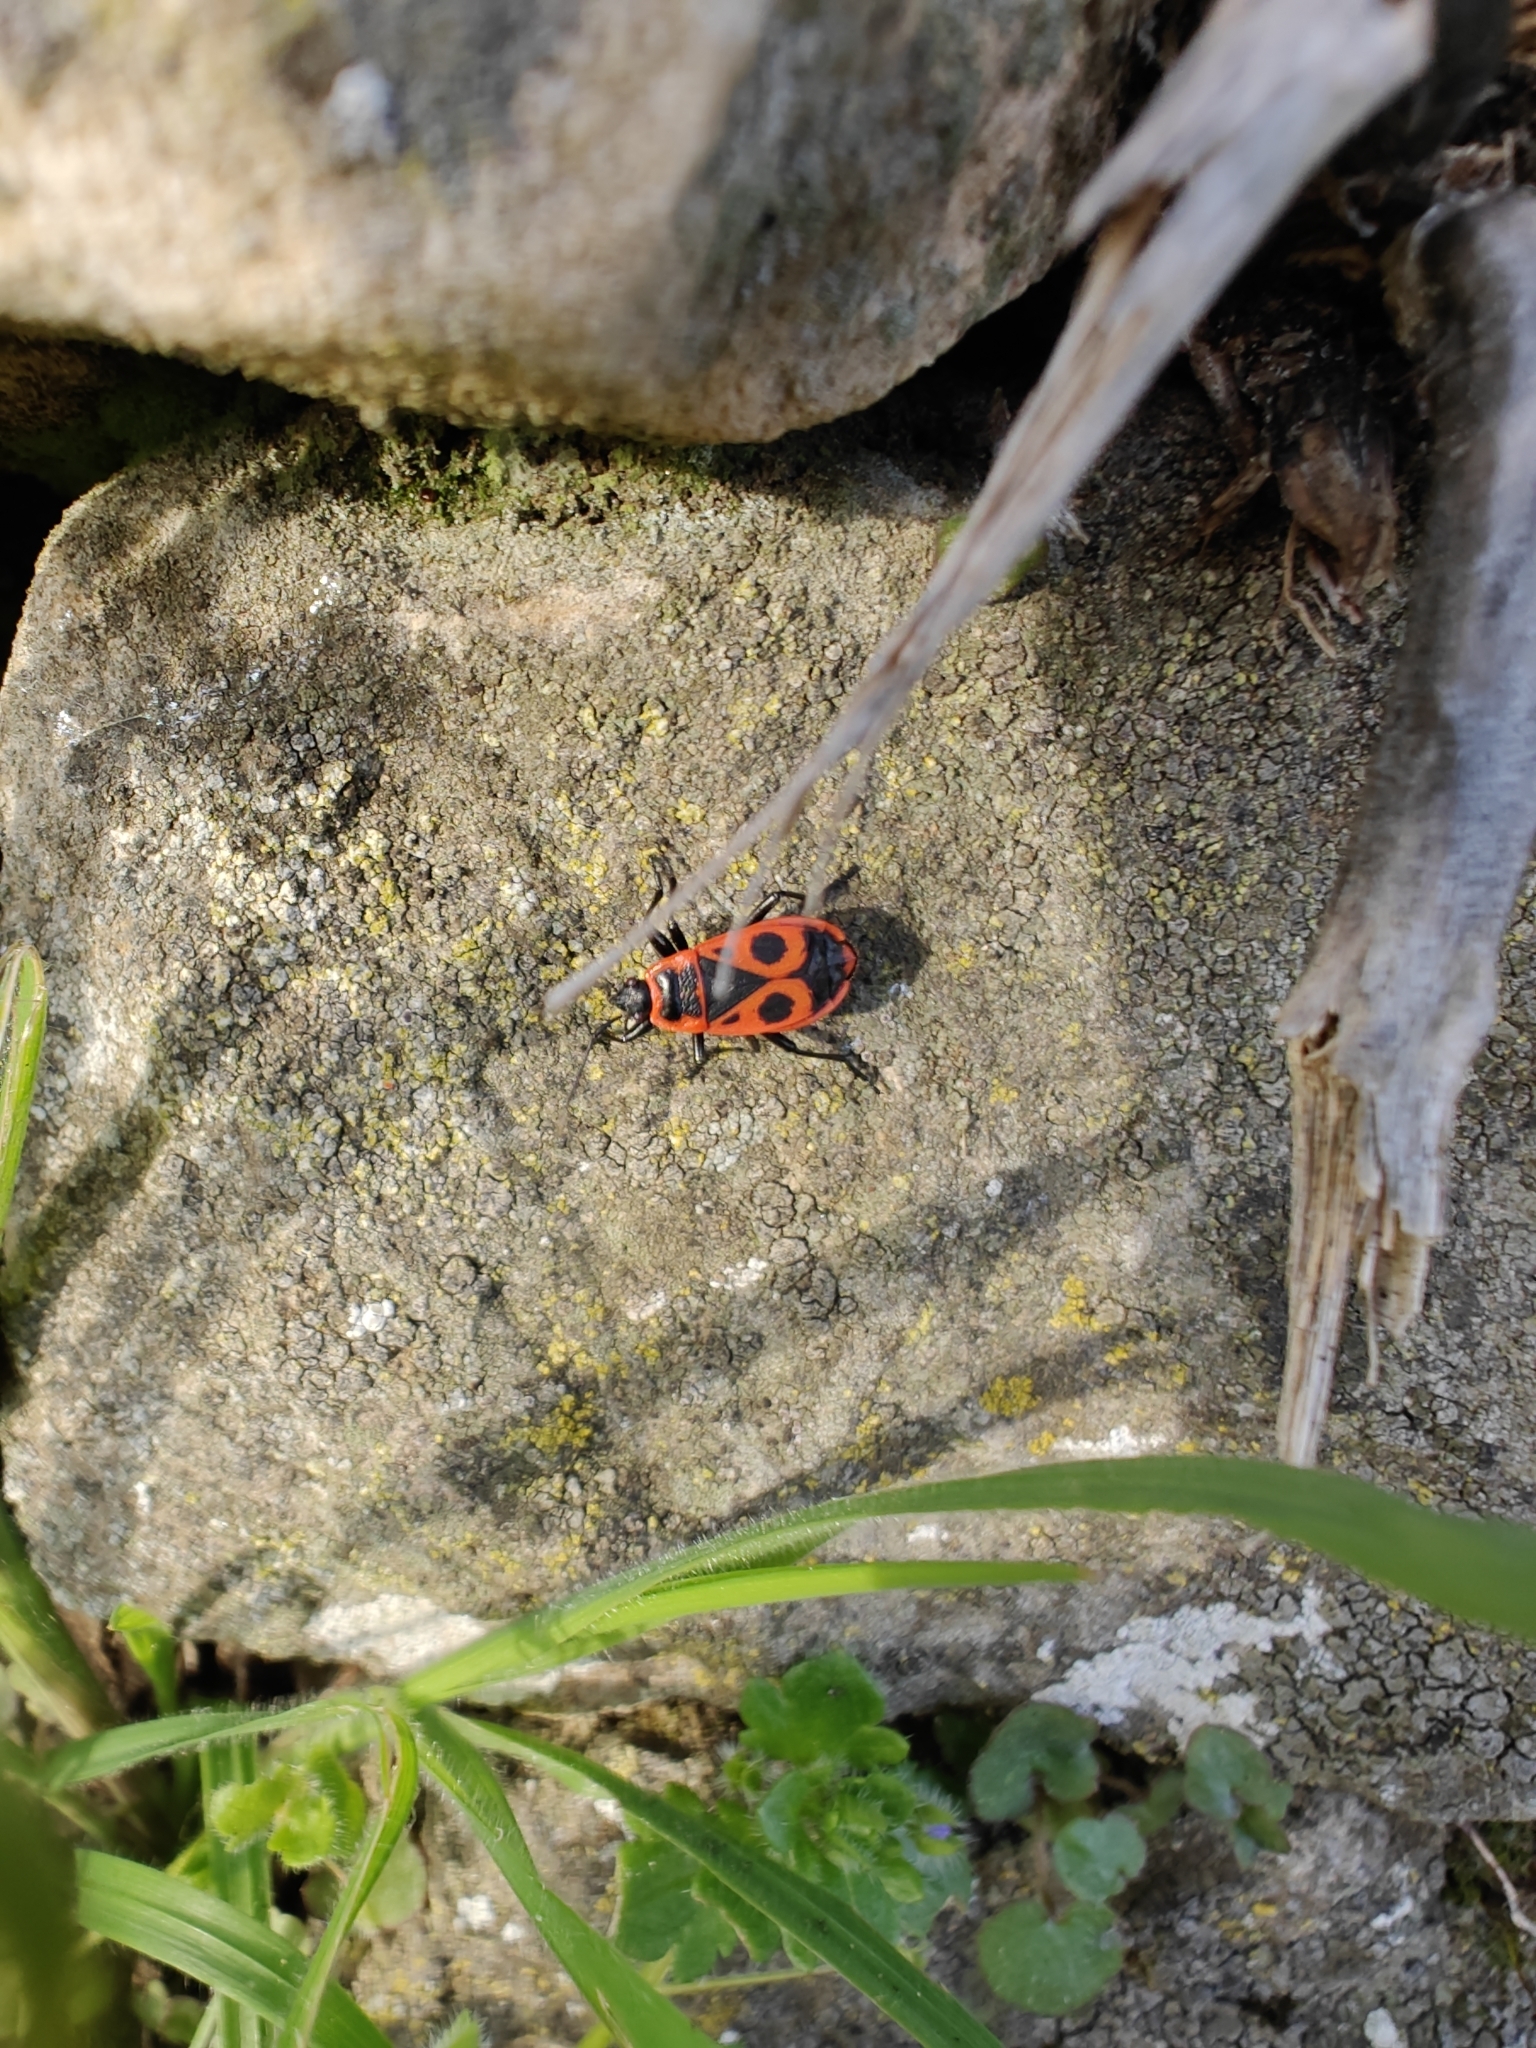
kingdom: Animalia
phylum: Arthropoda
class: Insecta
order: Hemiptera
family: Pyrrhocoridae
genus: Pyrrhocoris
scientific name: Pyrrhocoris apterus
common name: Firebug
